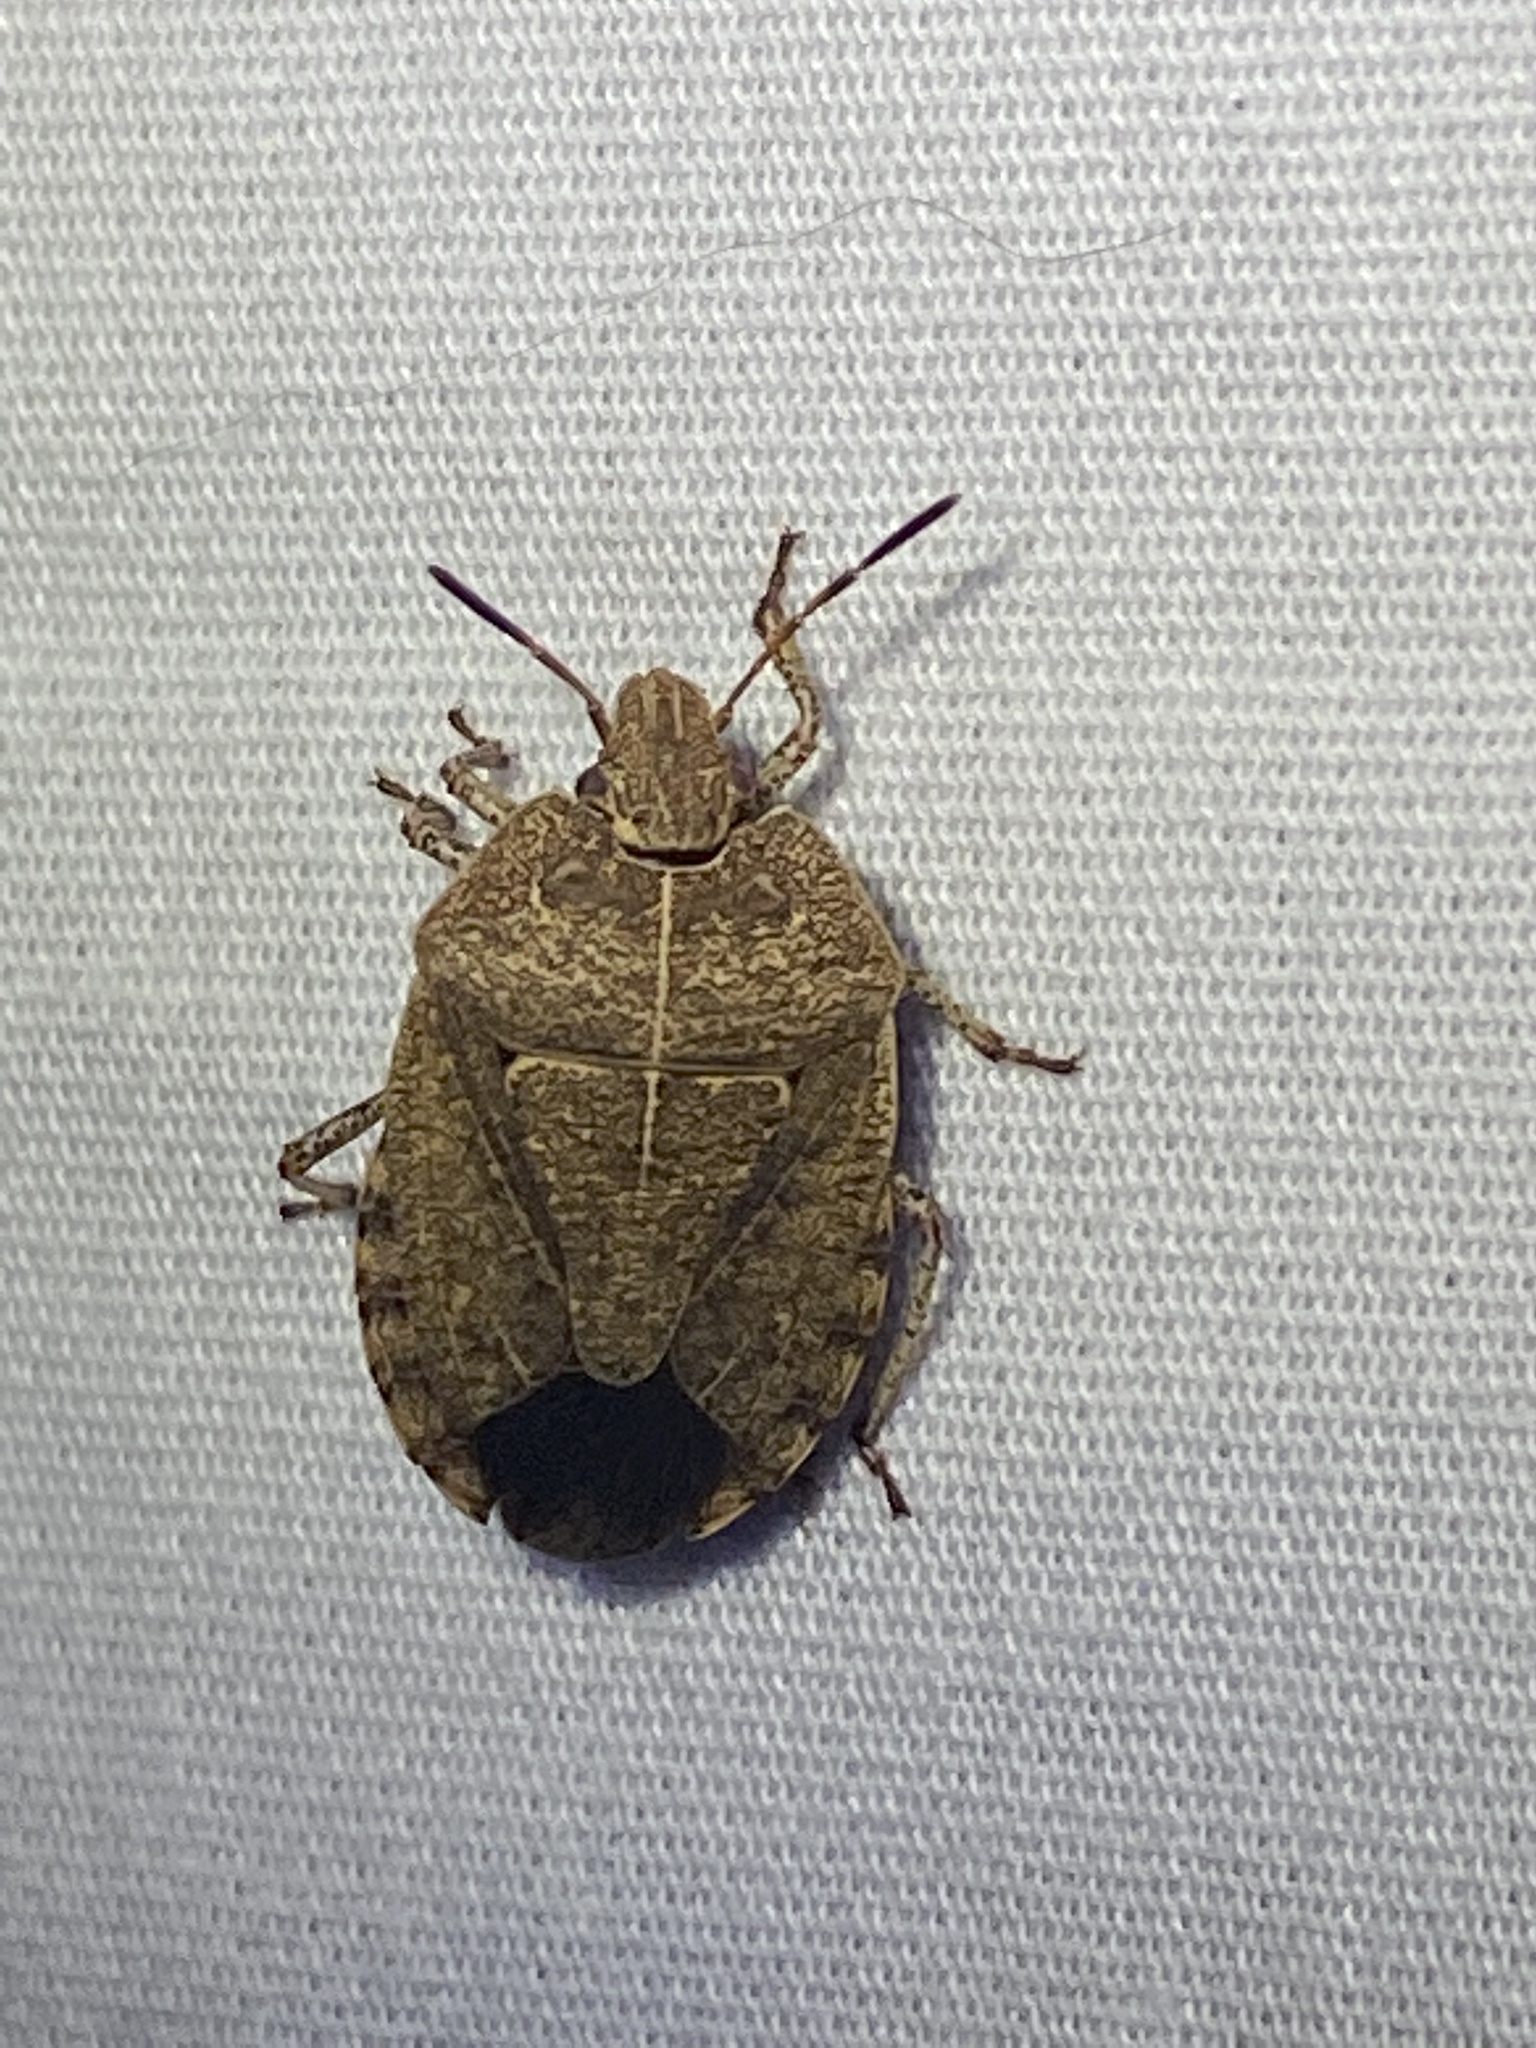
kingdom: Animalia
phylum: Arthropoda
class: Insecta
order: Hemiptera
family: Pentatomidae
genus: Menecles
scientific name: Menecles insertus
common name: Elf shoe stink bug
